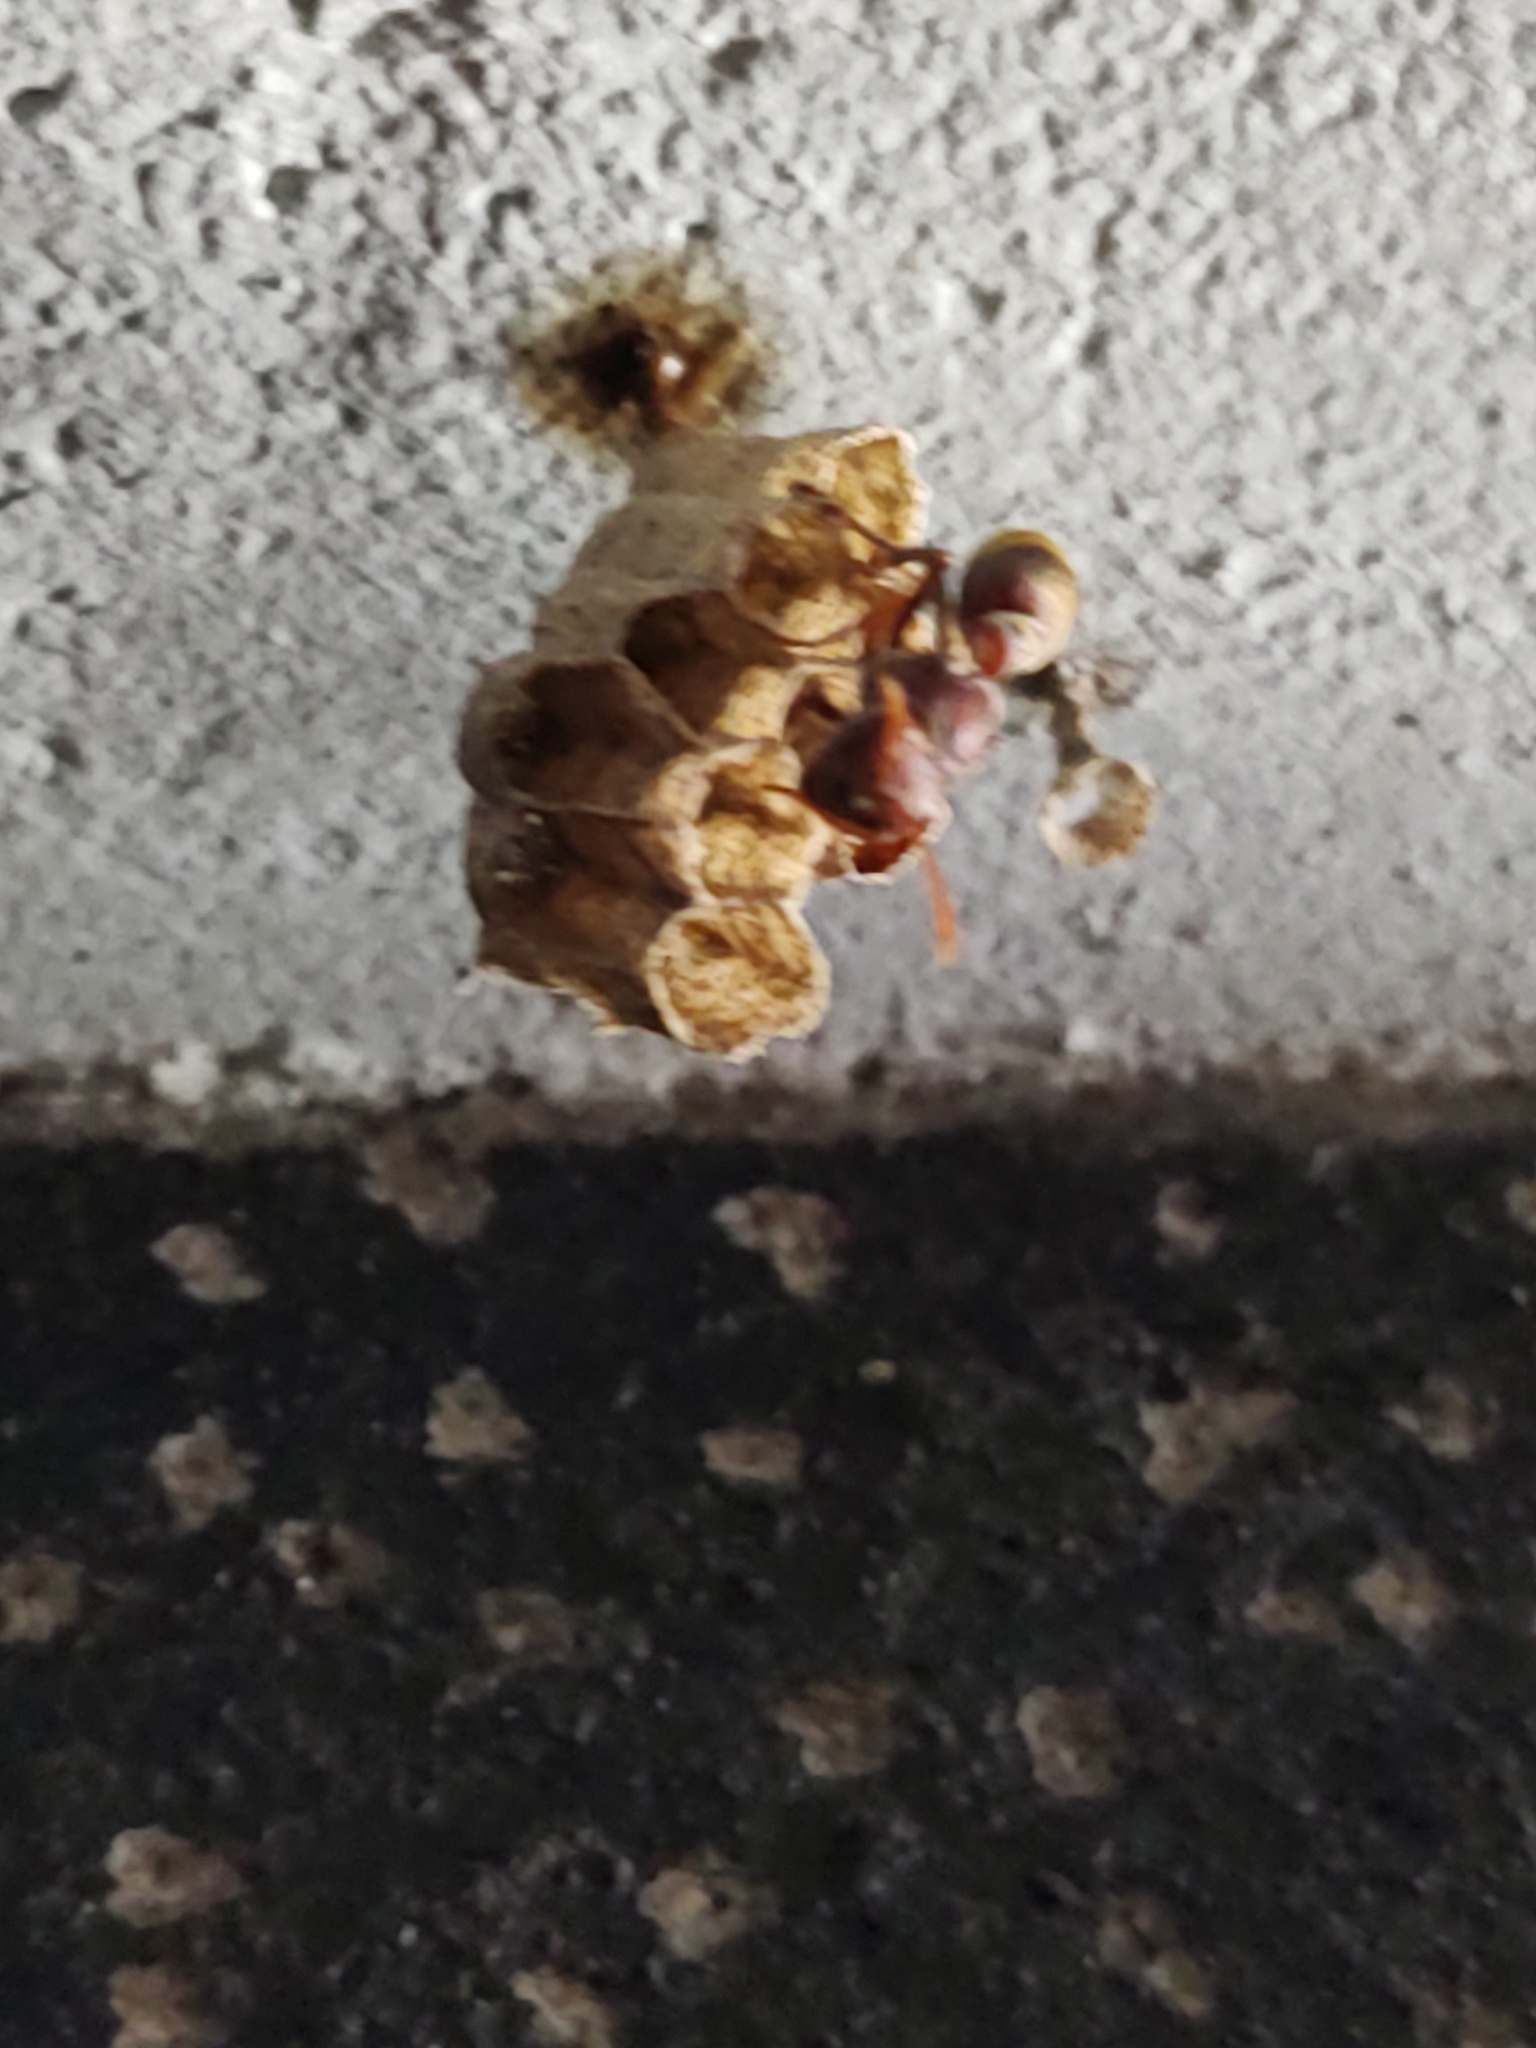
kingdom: Animalia
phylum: Arthropoda
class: Insecta
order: Hymenoptera
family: Vespidae
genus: Ropalidia
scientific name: Ropalidia
